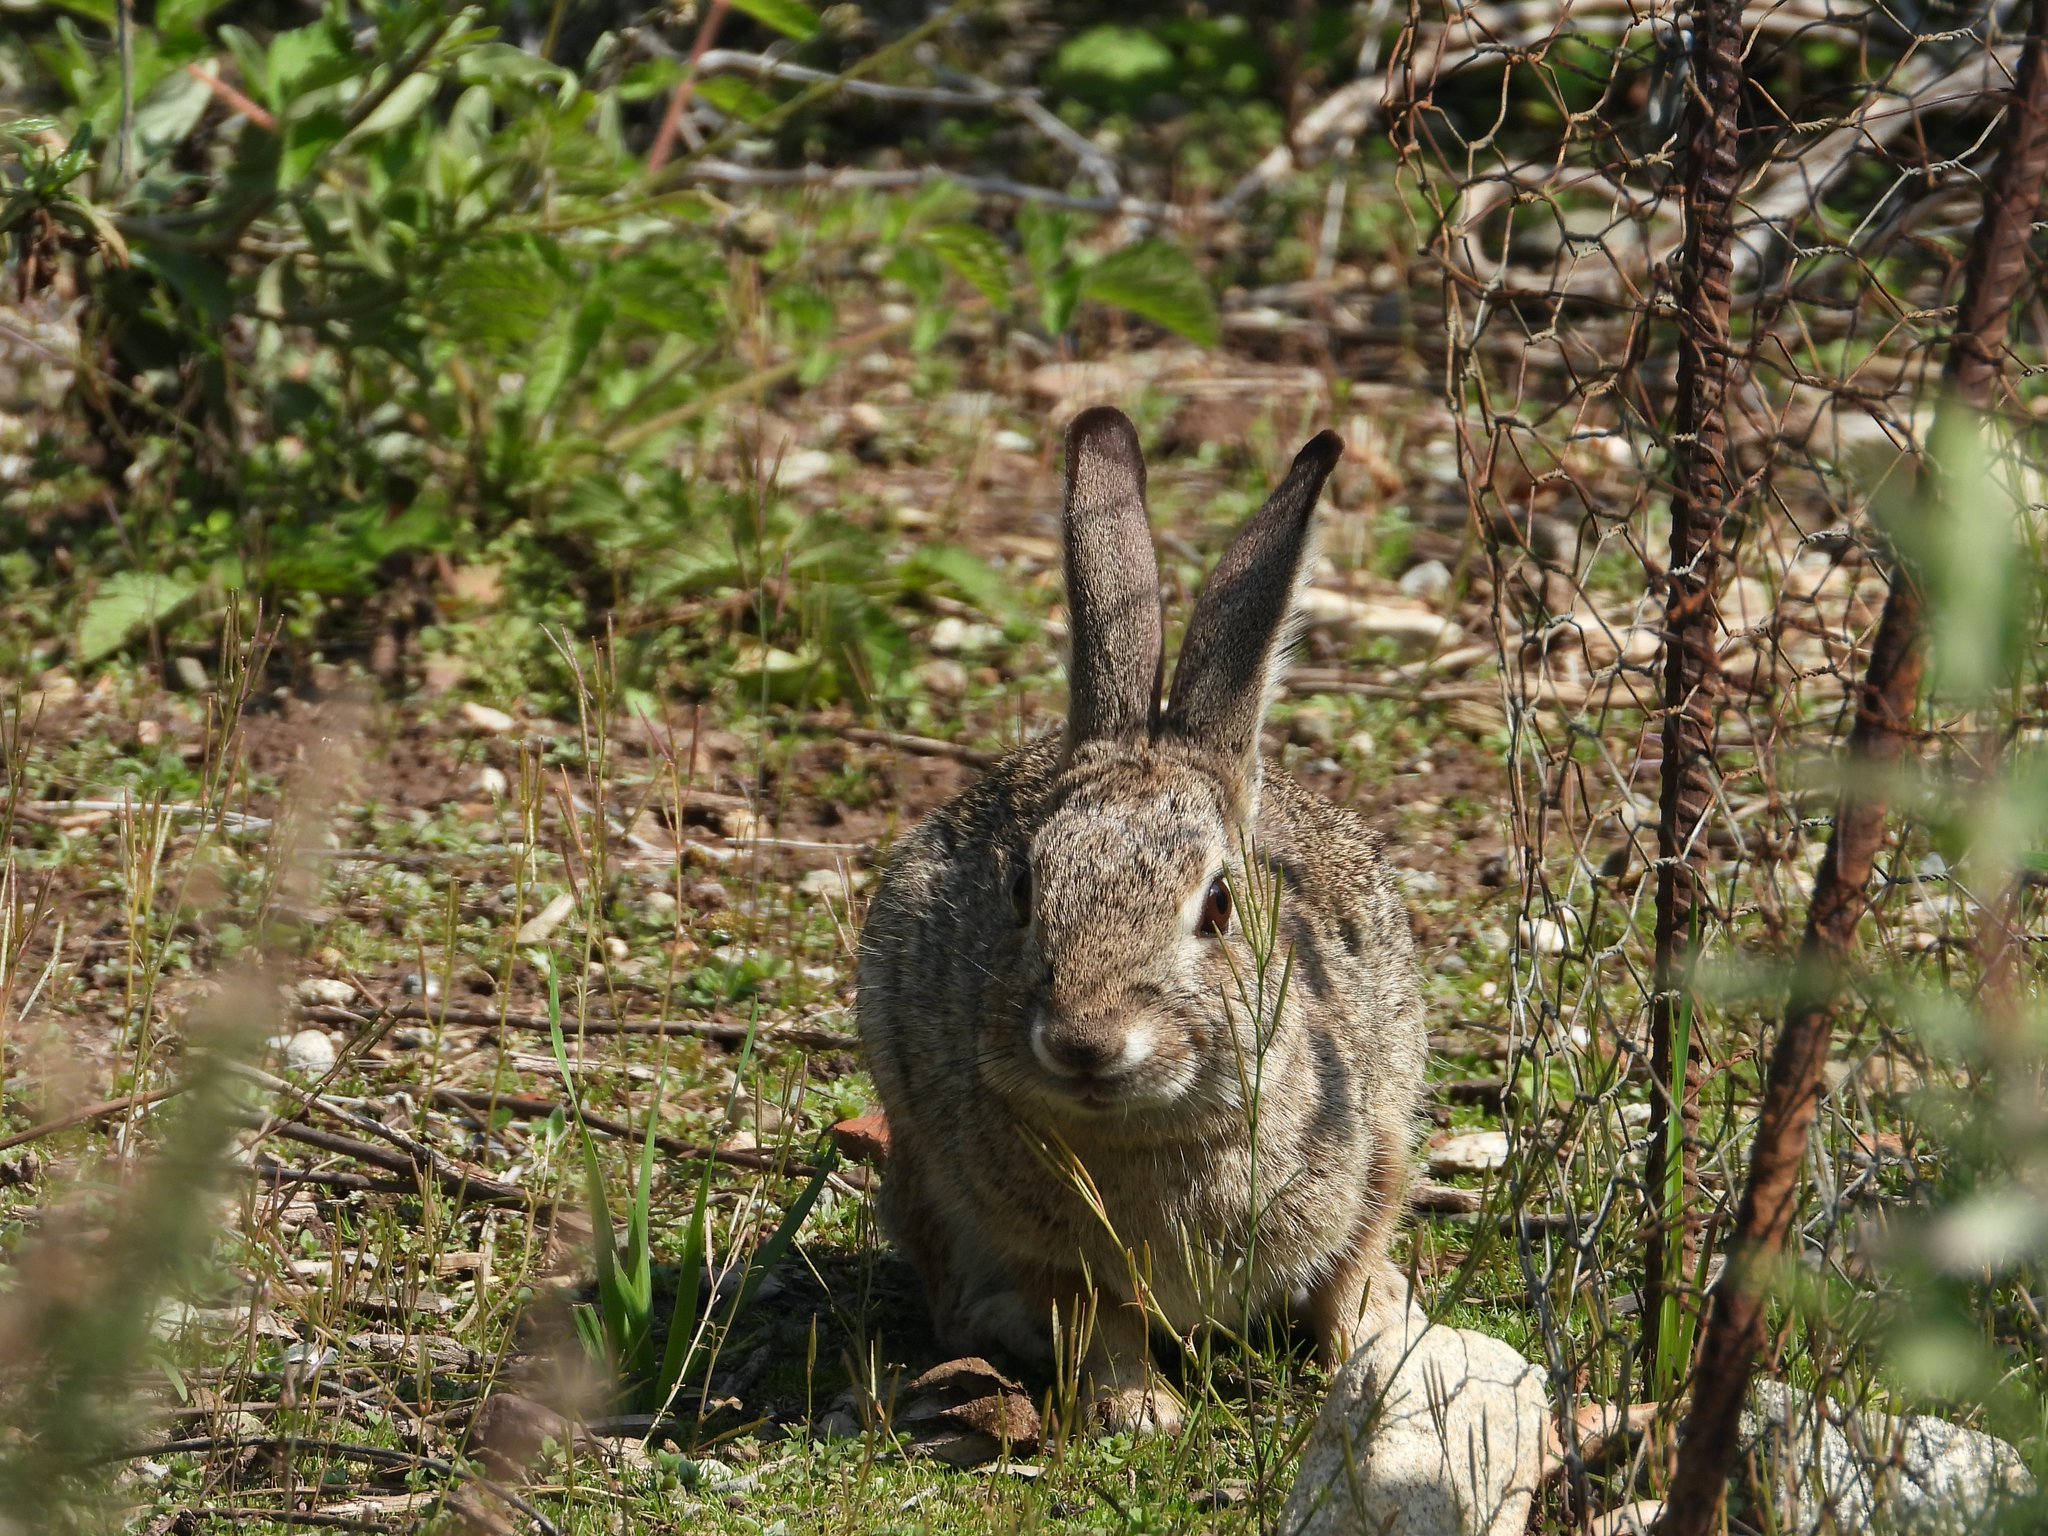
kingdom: Animalia
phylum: Chordata
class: Mammalia
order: Lagomorpha
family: Leporidae
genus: Sylvilagus
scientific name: Sylvilagus audubonii
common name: Desert cottontail
